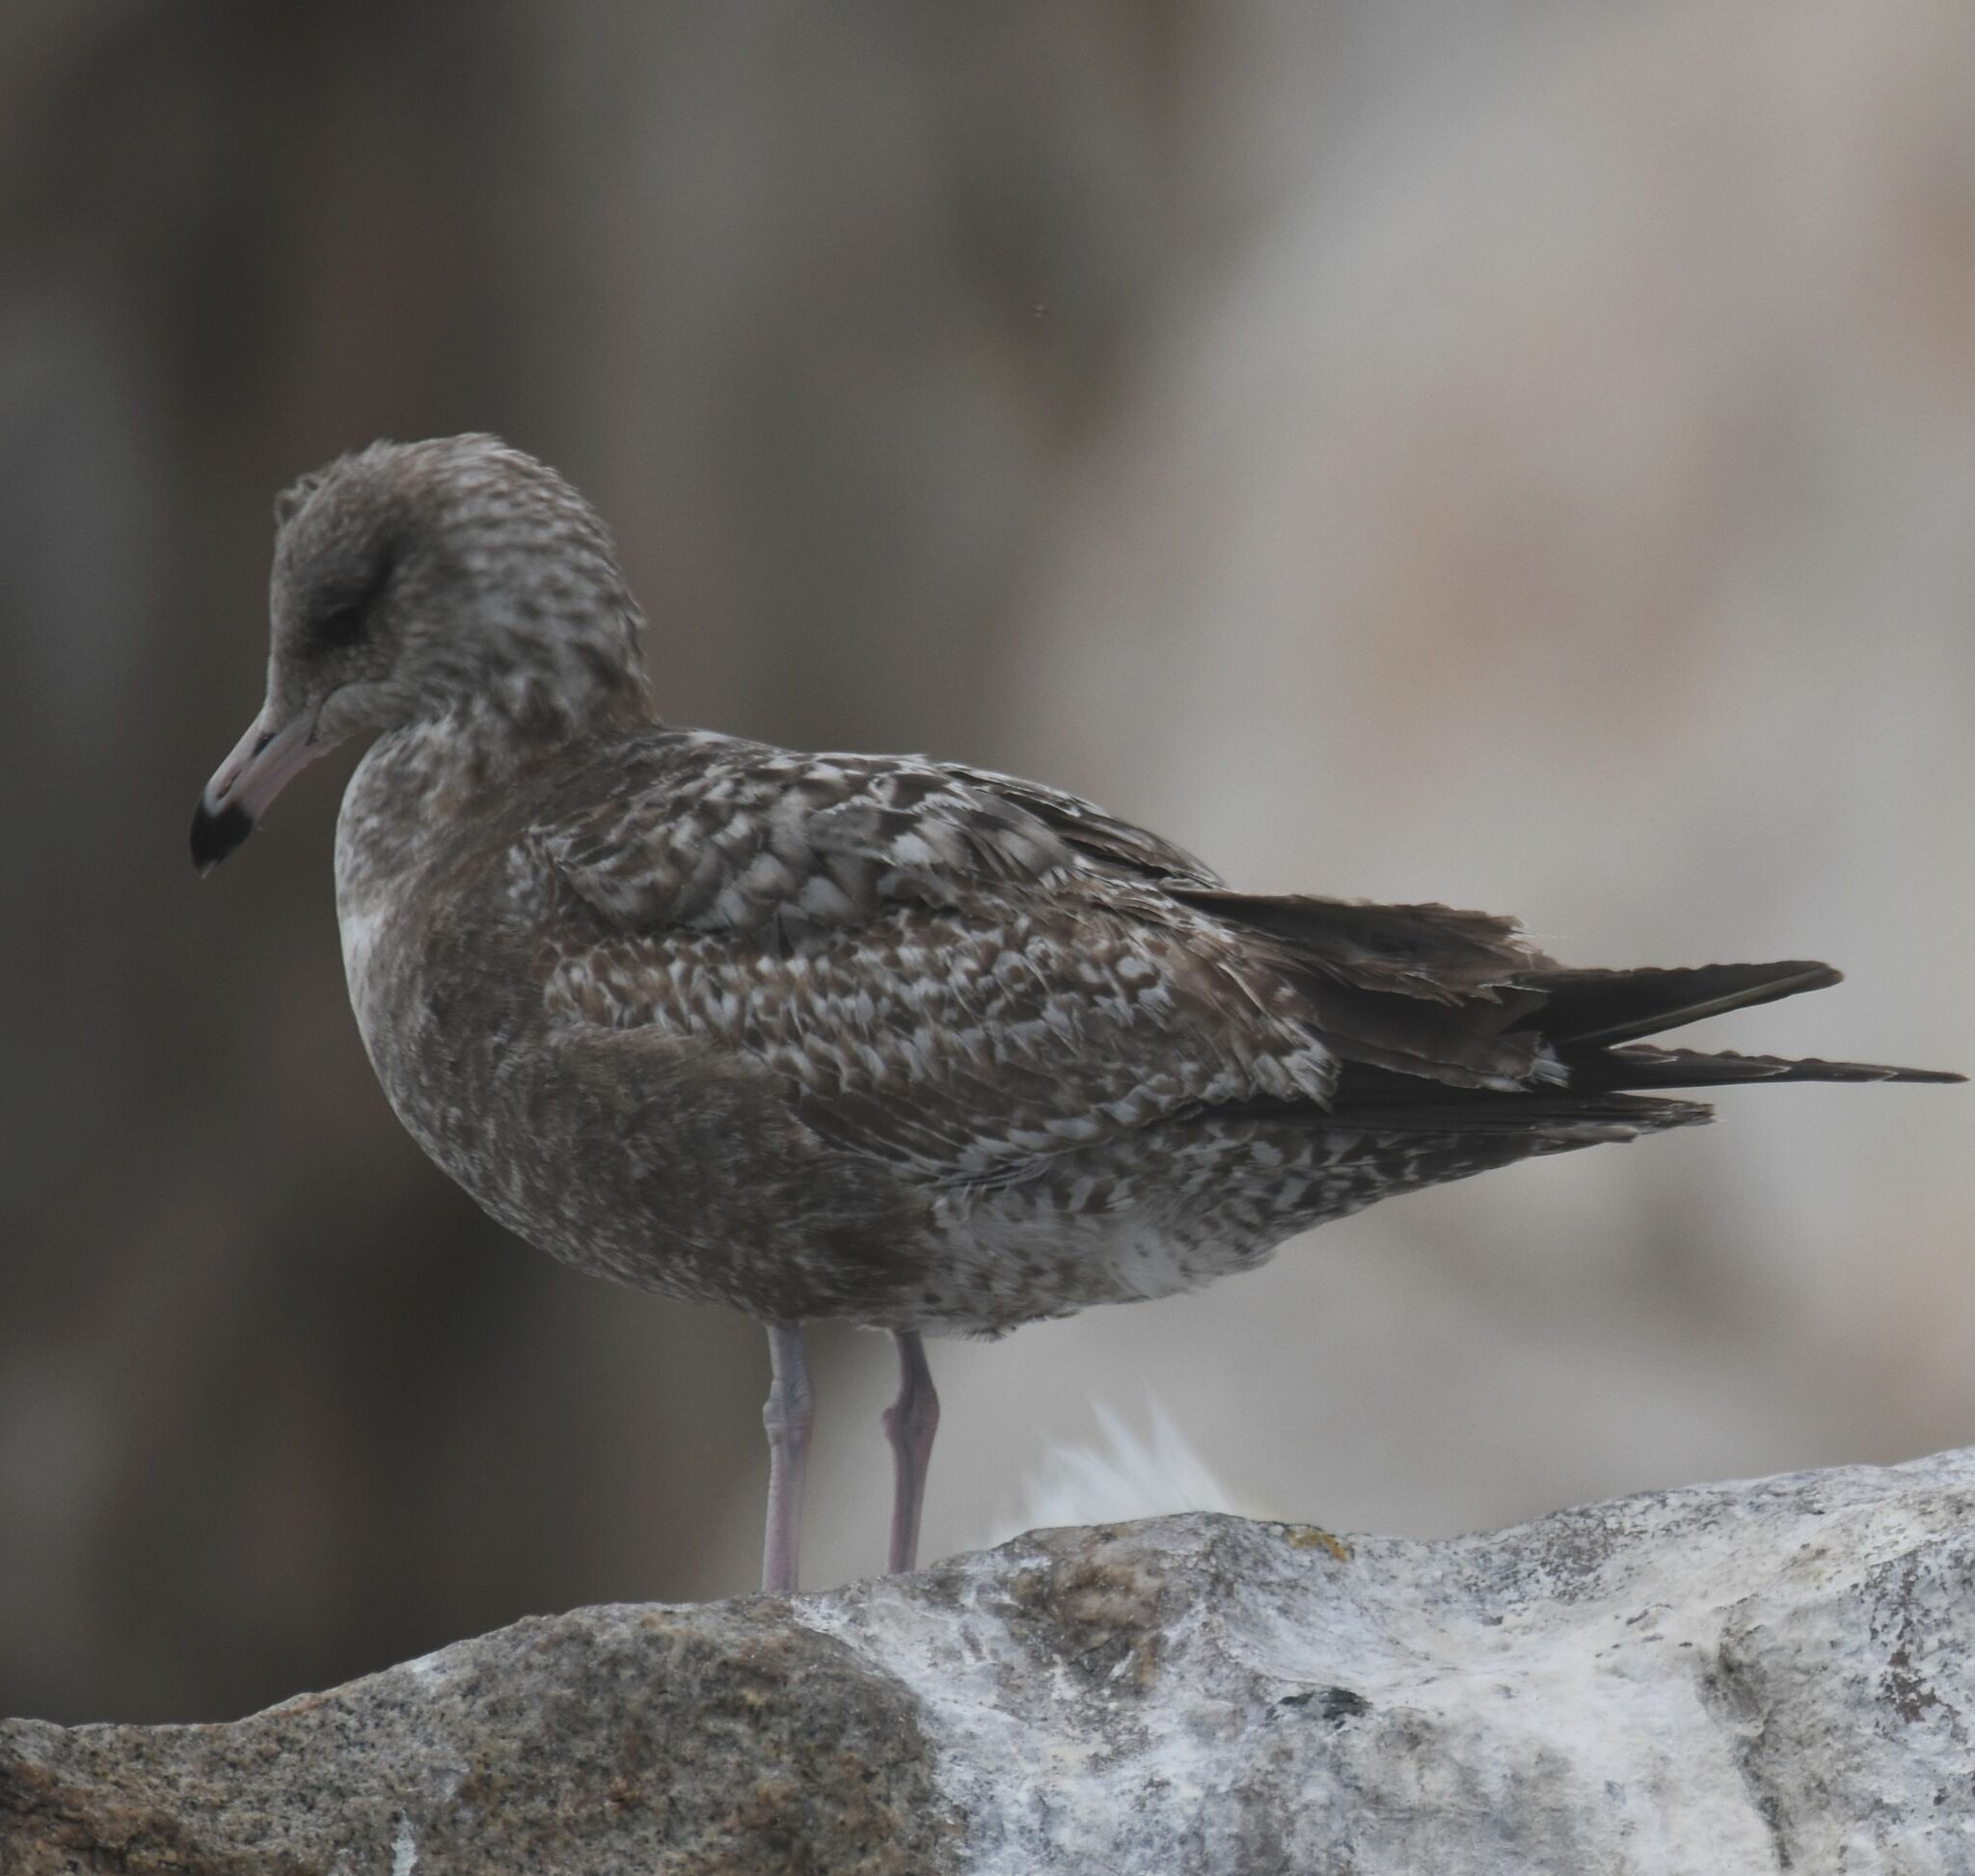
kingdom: Animalia
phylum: Chordata
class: Aves
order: Charadriiformes
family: Laridae
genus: Larus
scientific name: Larus californicus
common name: California gull
